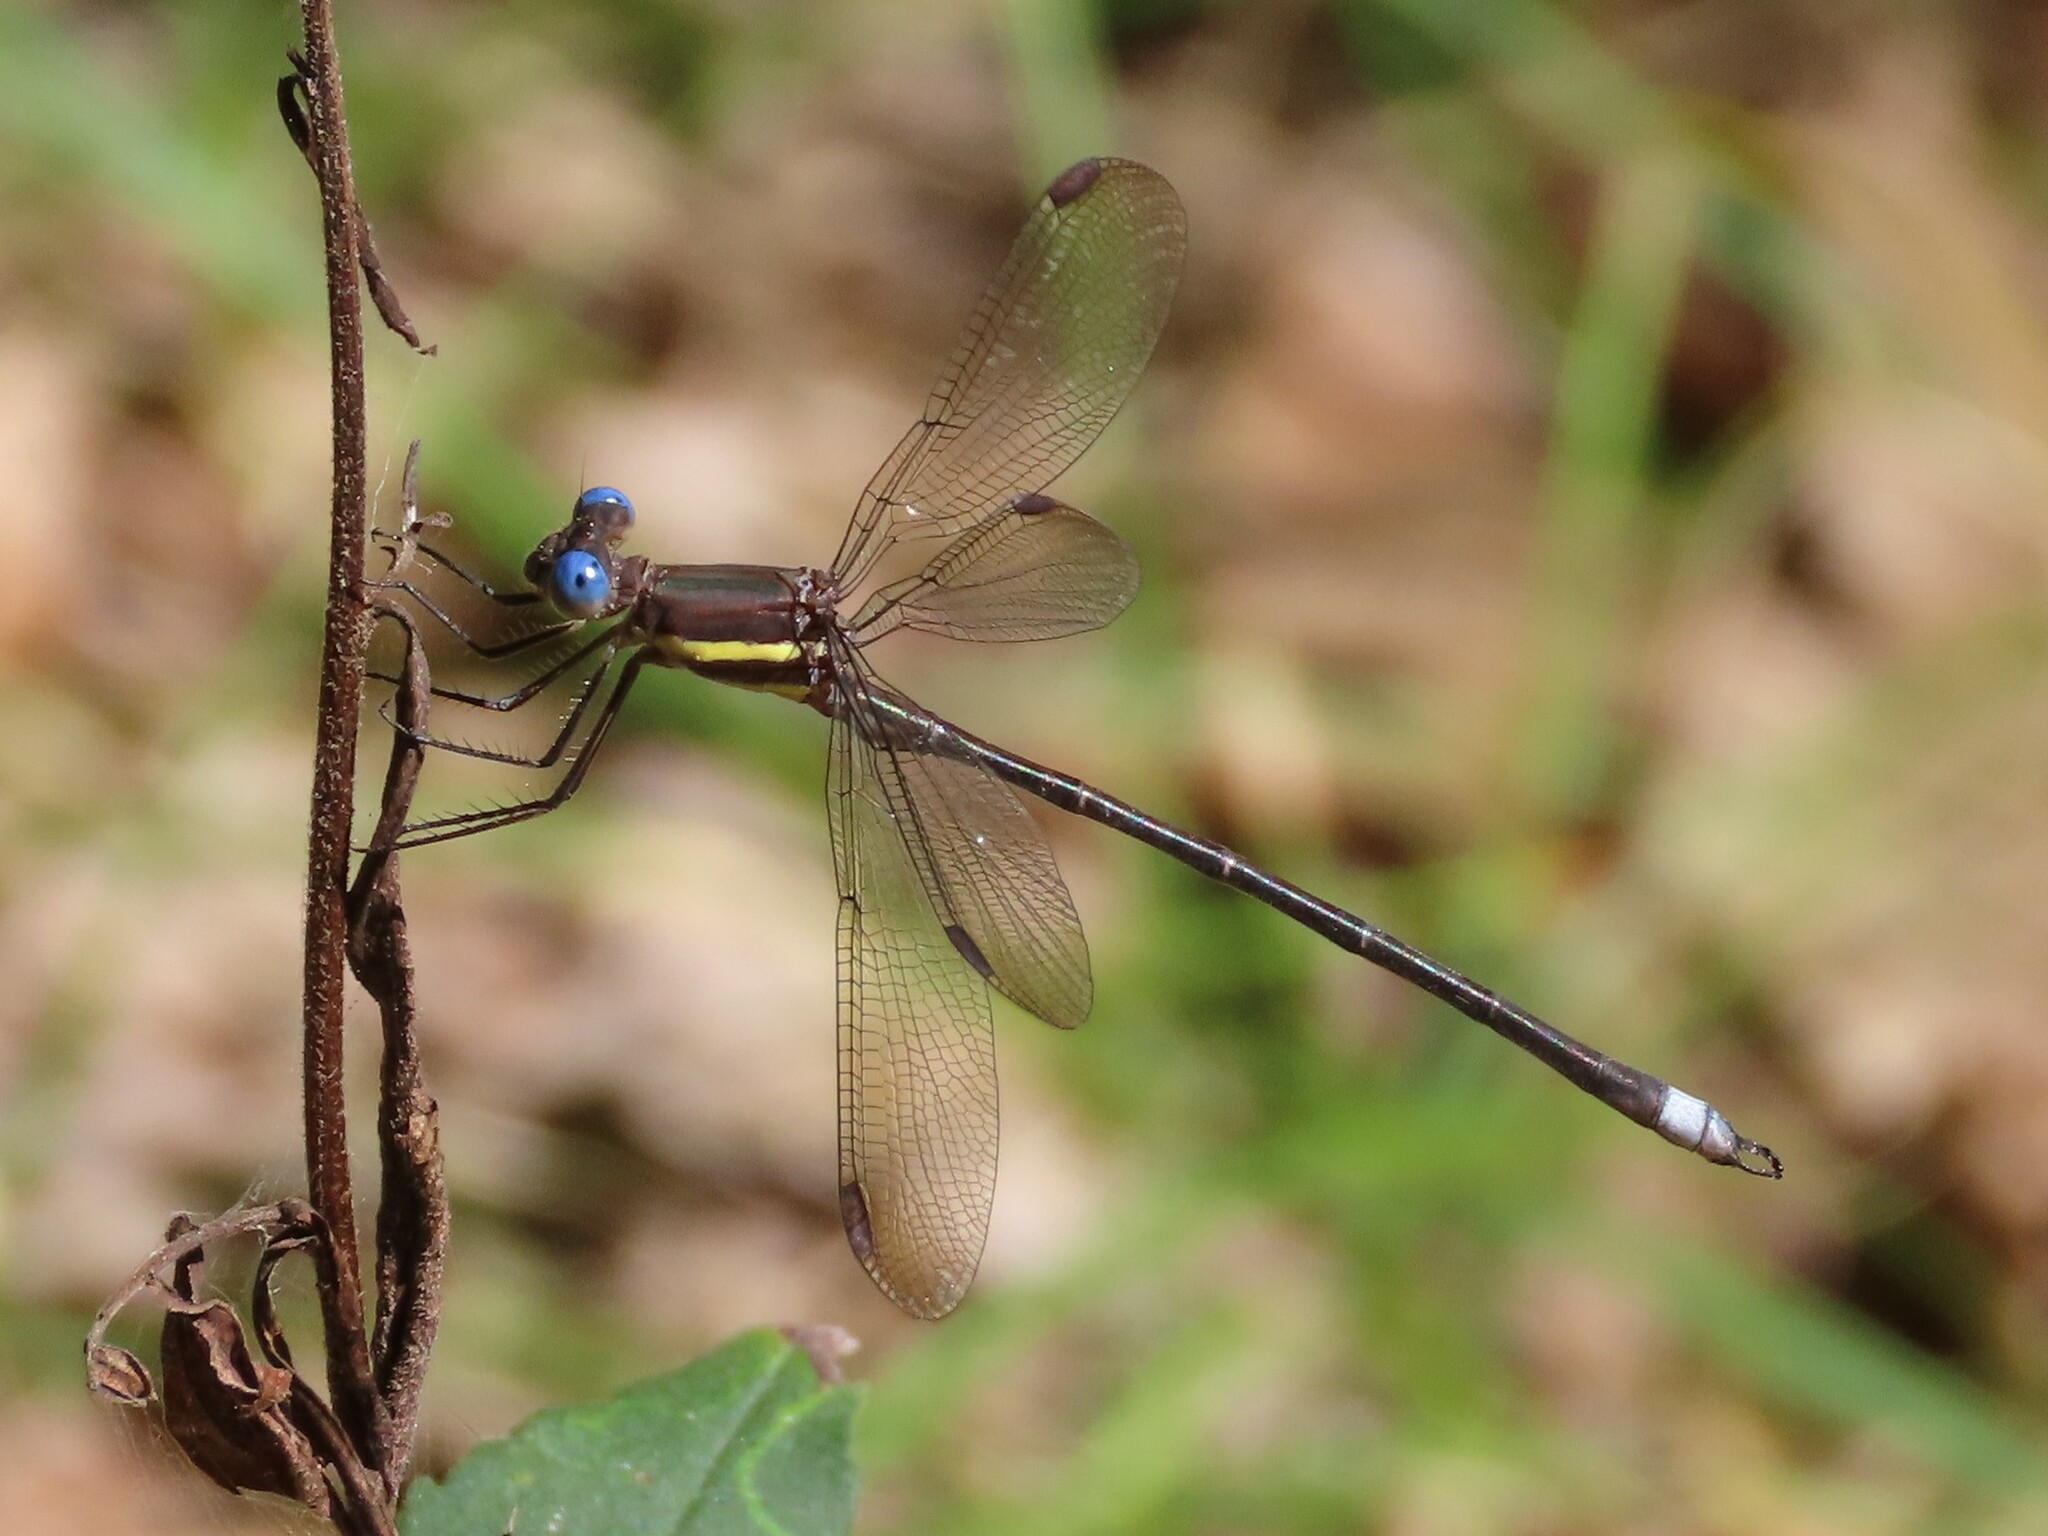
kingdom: Animalia
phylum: Arthropoda
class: Insecta
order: Odonata
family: Lestidae
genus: Archilestes
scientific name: Archilestes grandis
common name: Great spreadwing
